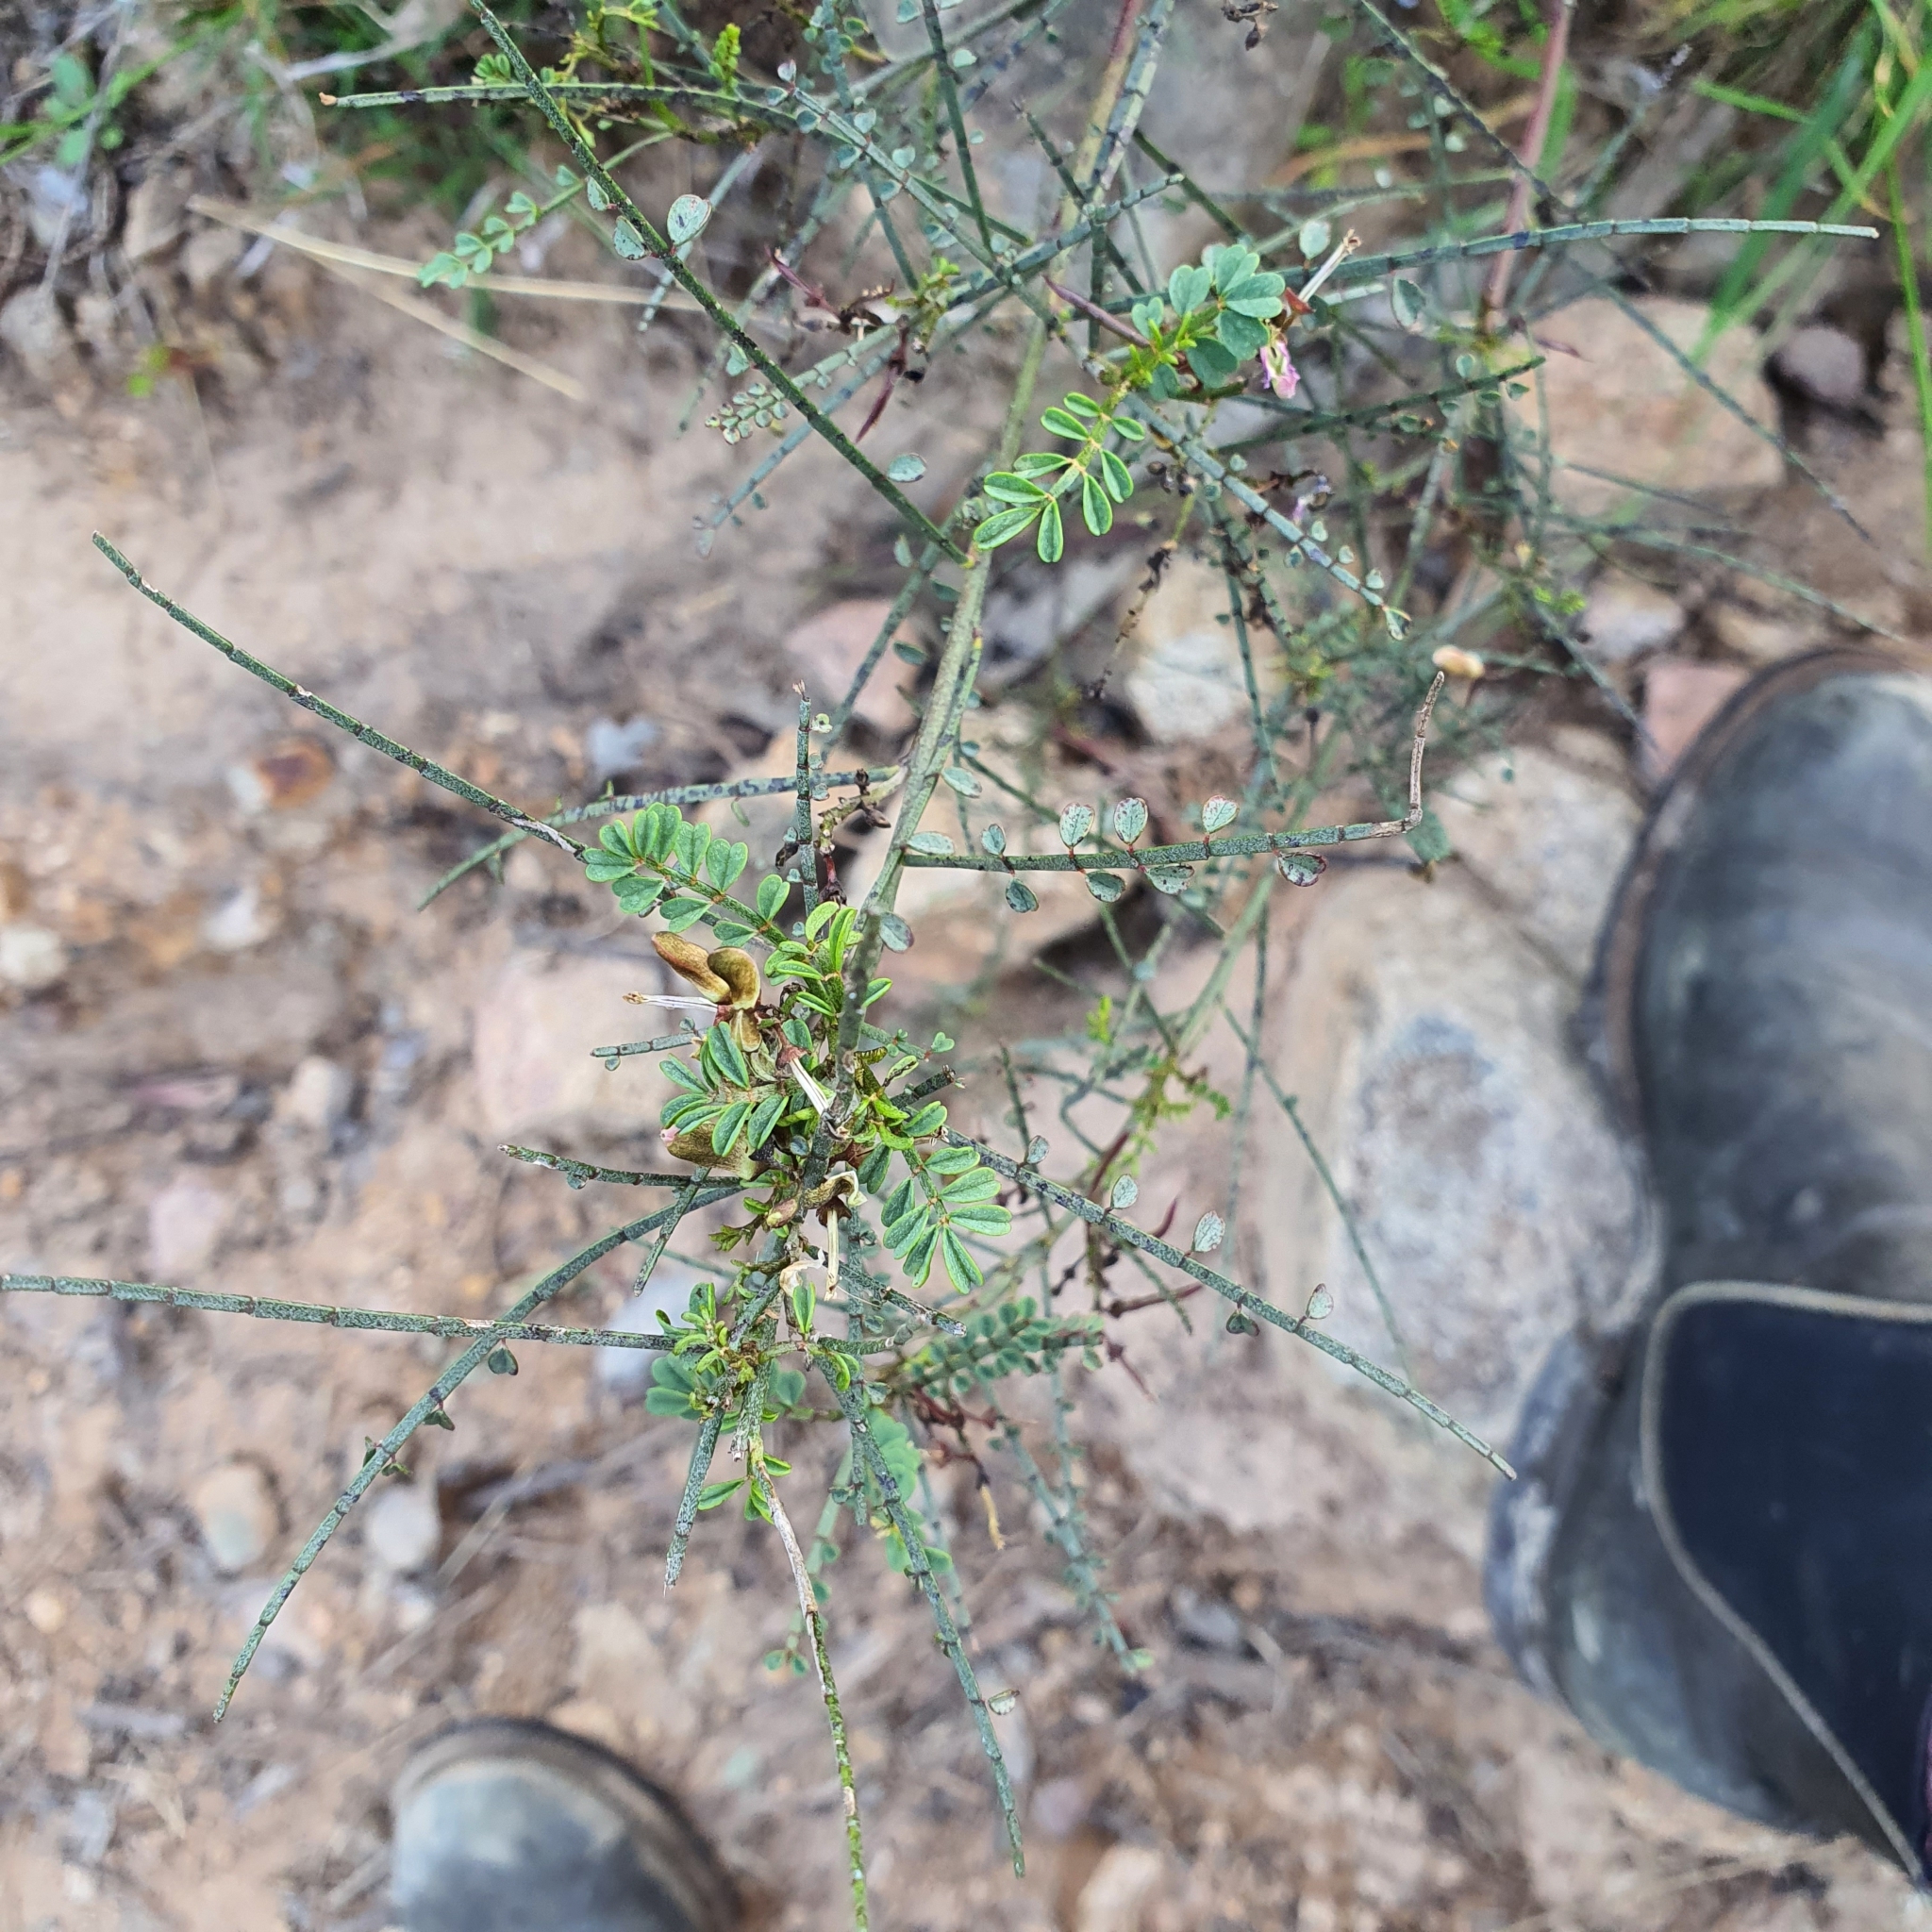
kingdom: Plantae
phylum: Tracheophyta
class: Magnoliopsida
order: Fabales
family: Fabaceae
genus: Indigofera
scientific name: Indigofera adesmiifolia
